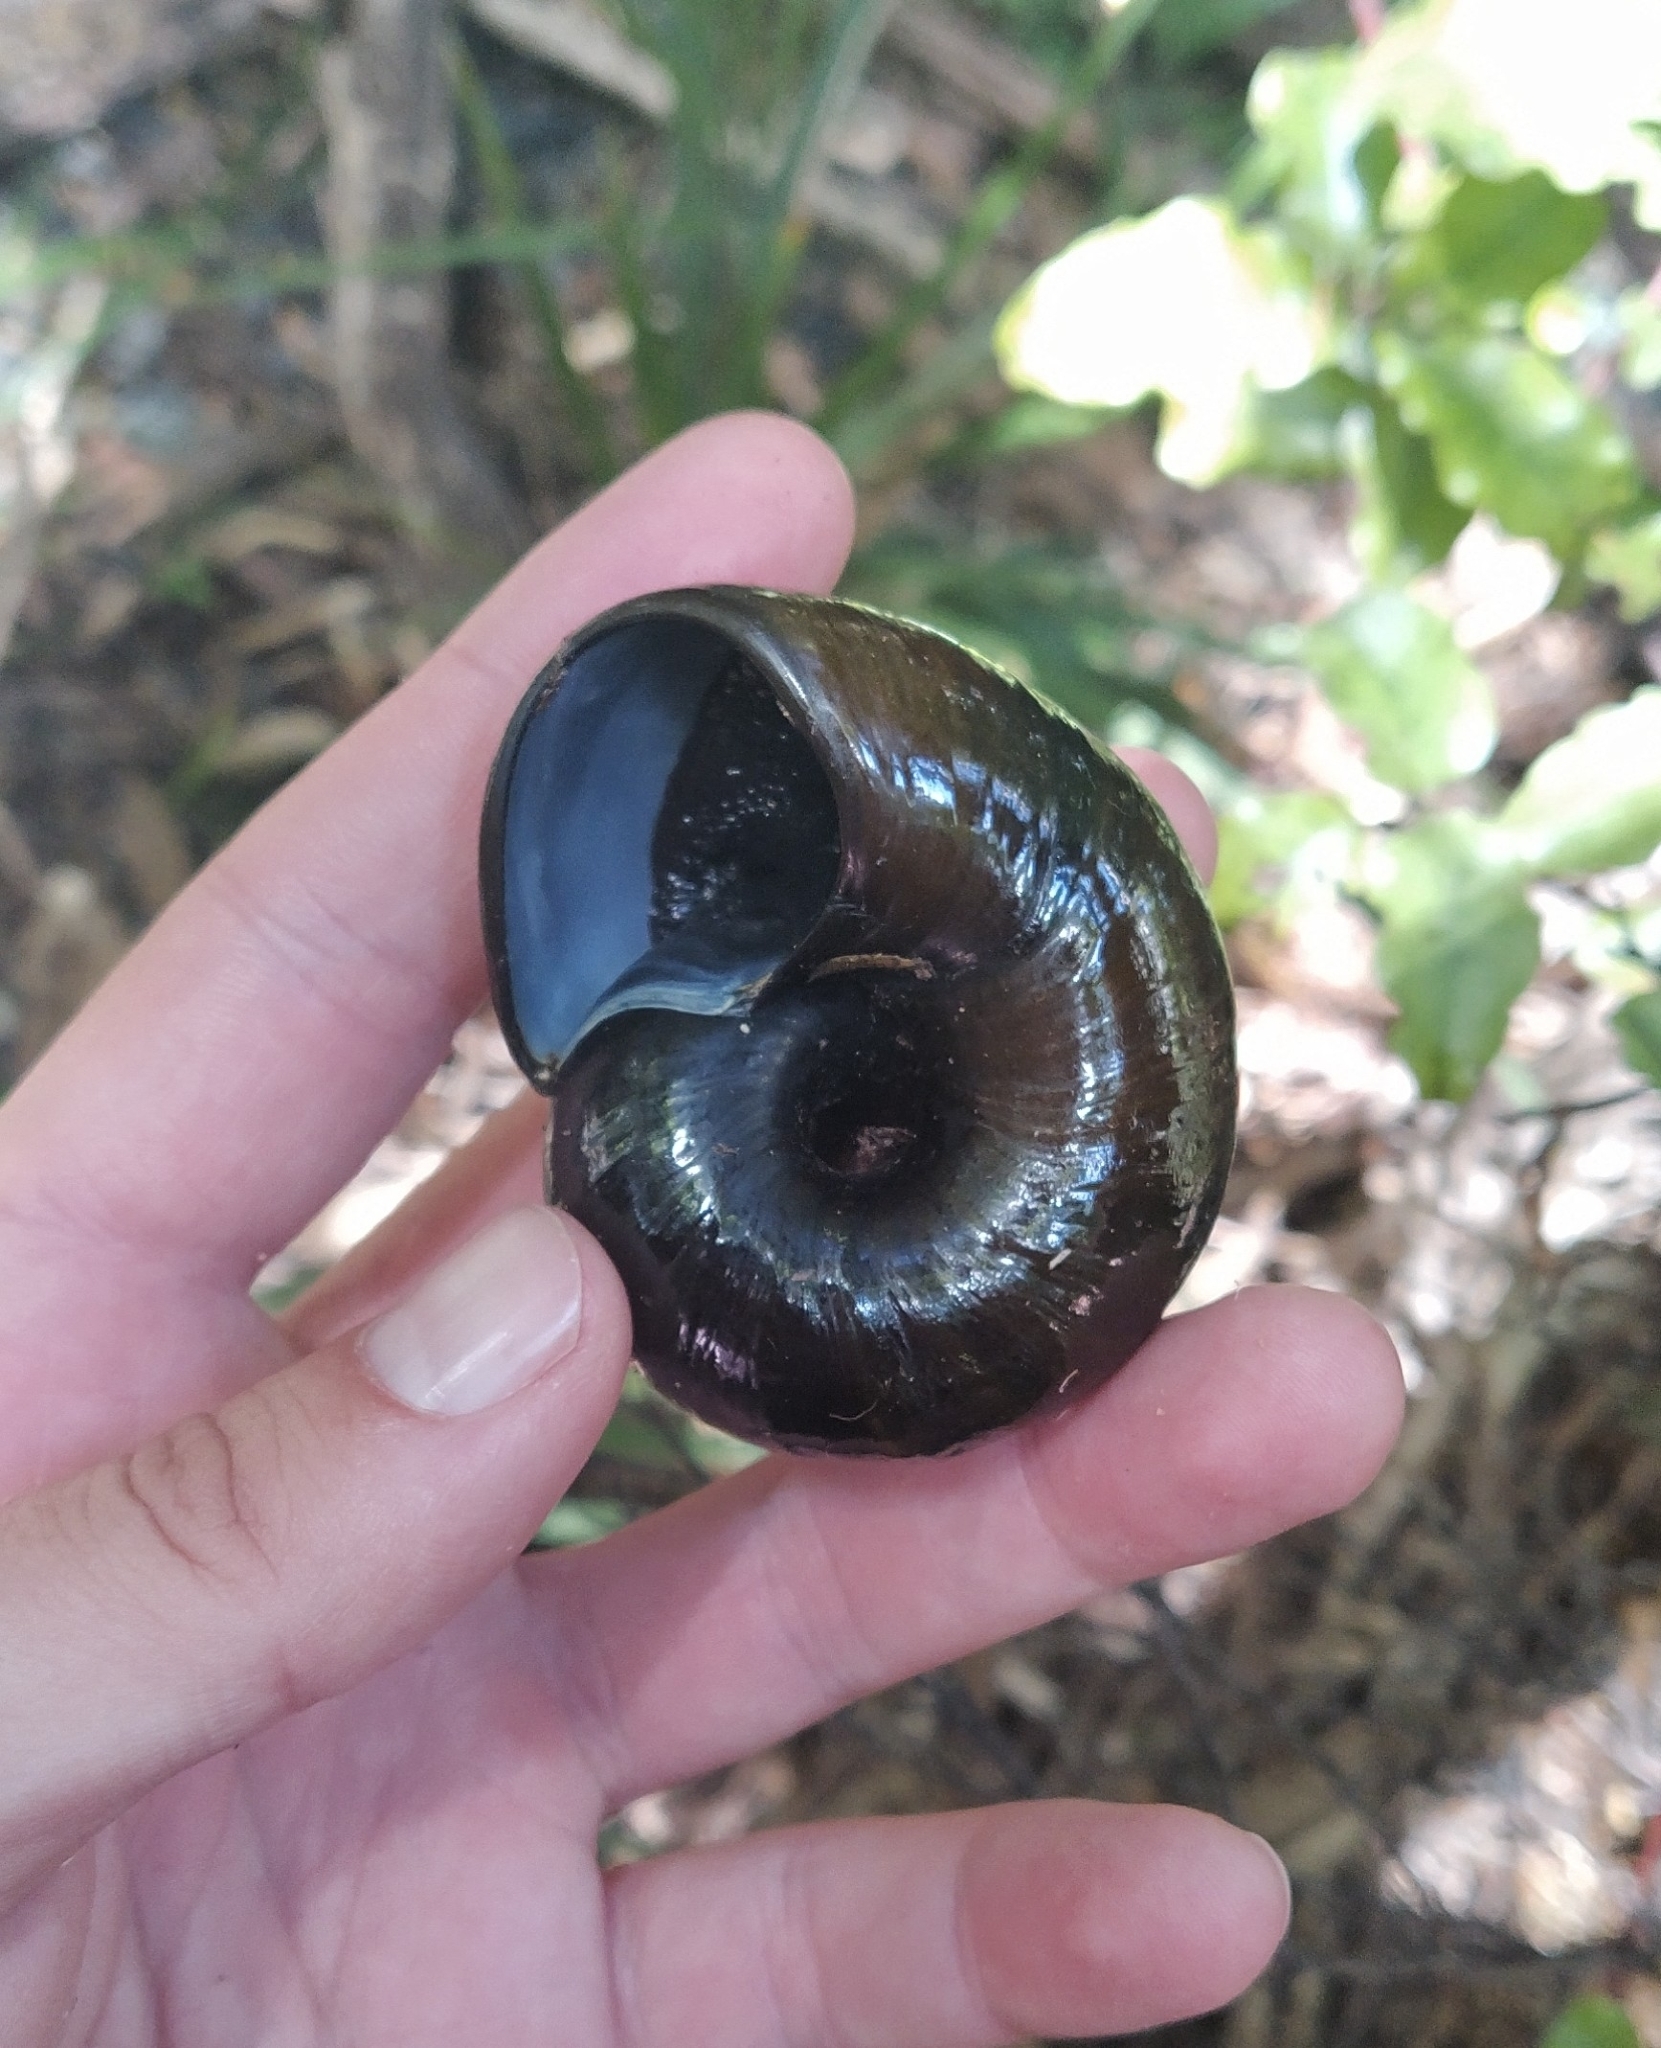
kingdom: Animalia
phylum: Mollusca
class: Gastropoda
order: Stylommatophora
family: Rhytididae
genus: Paryphanta
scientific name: Paryphanta busbyi
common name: Kauri snail
